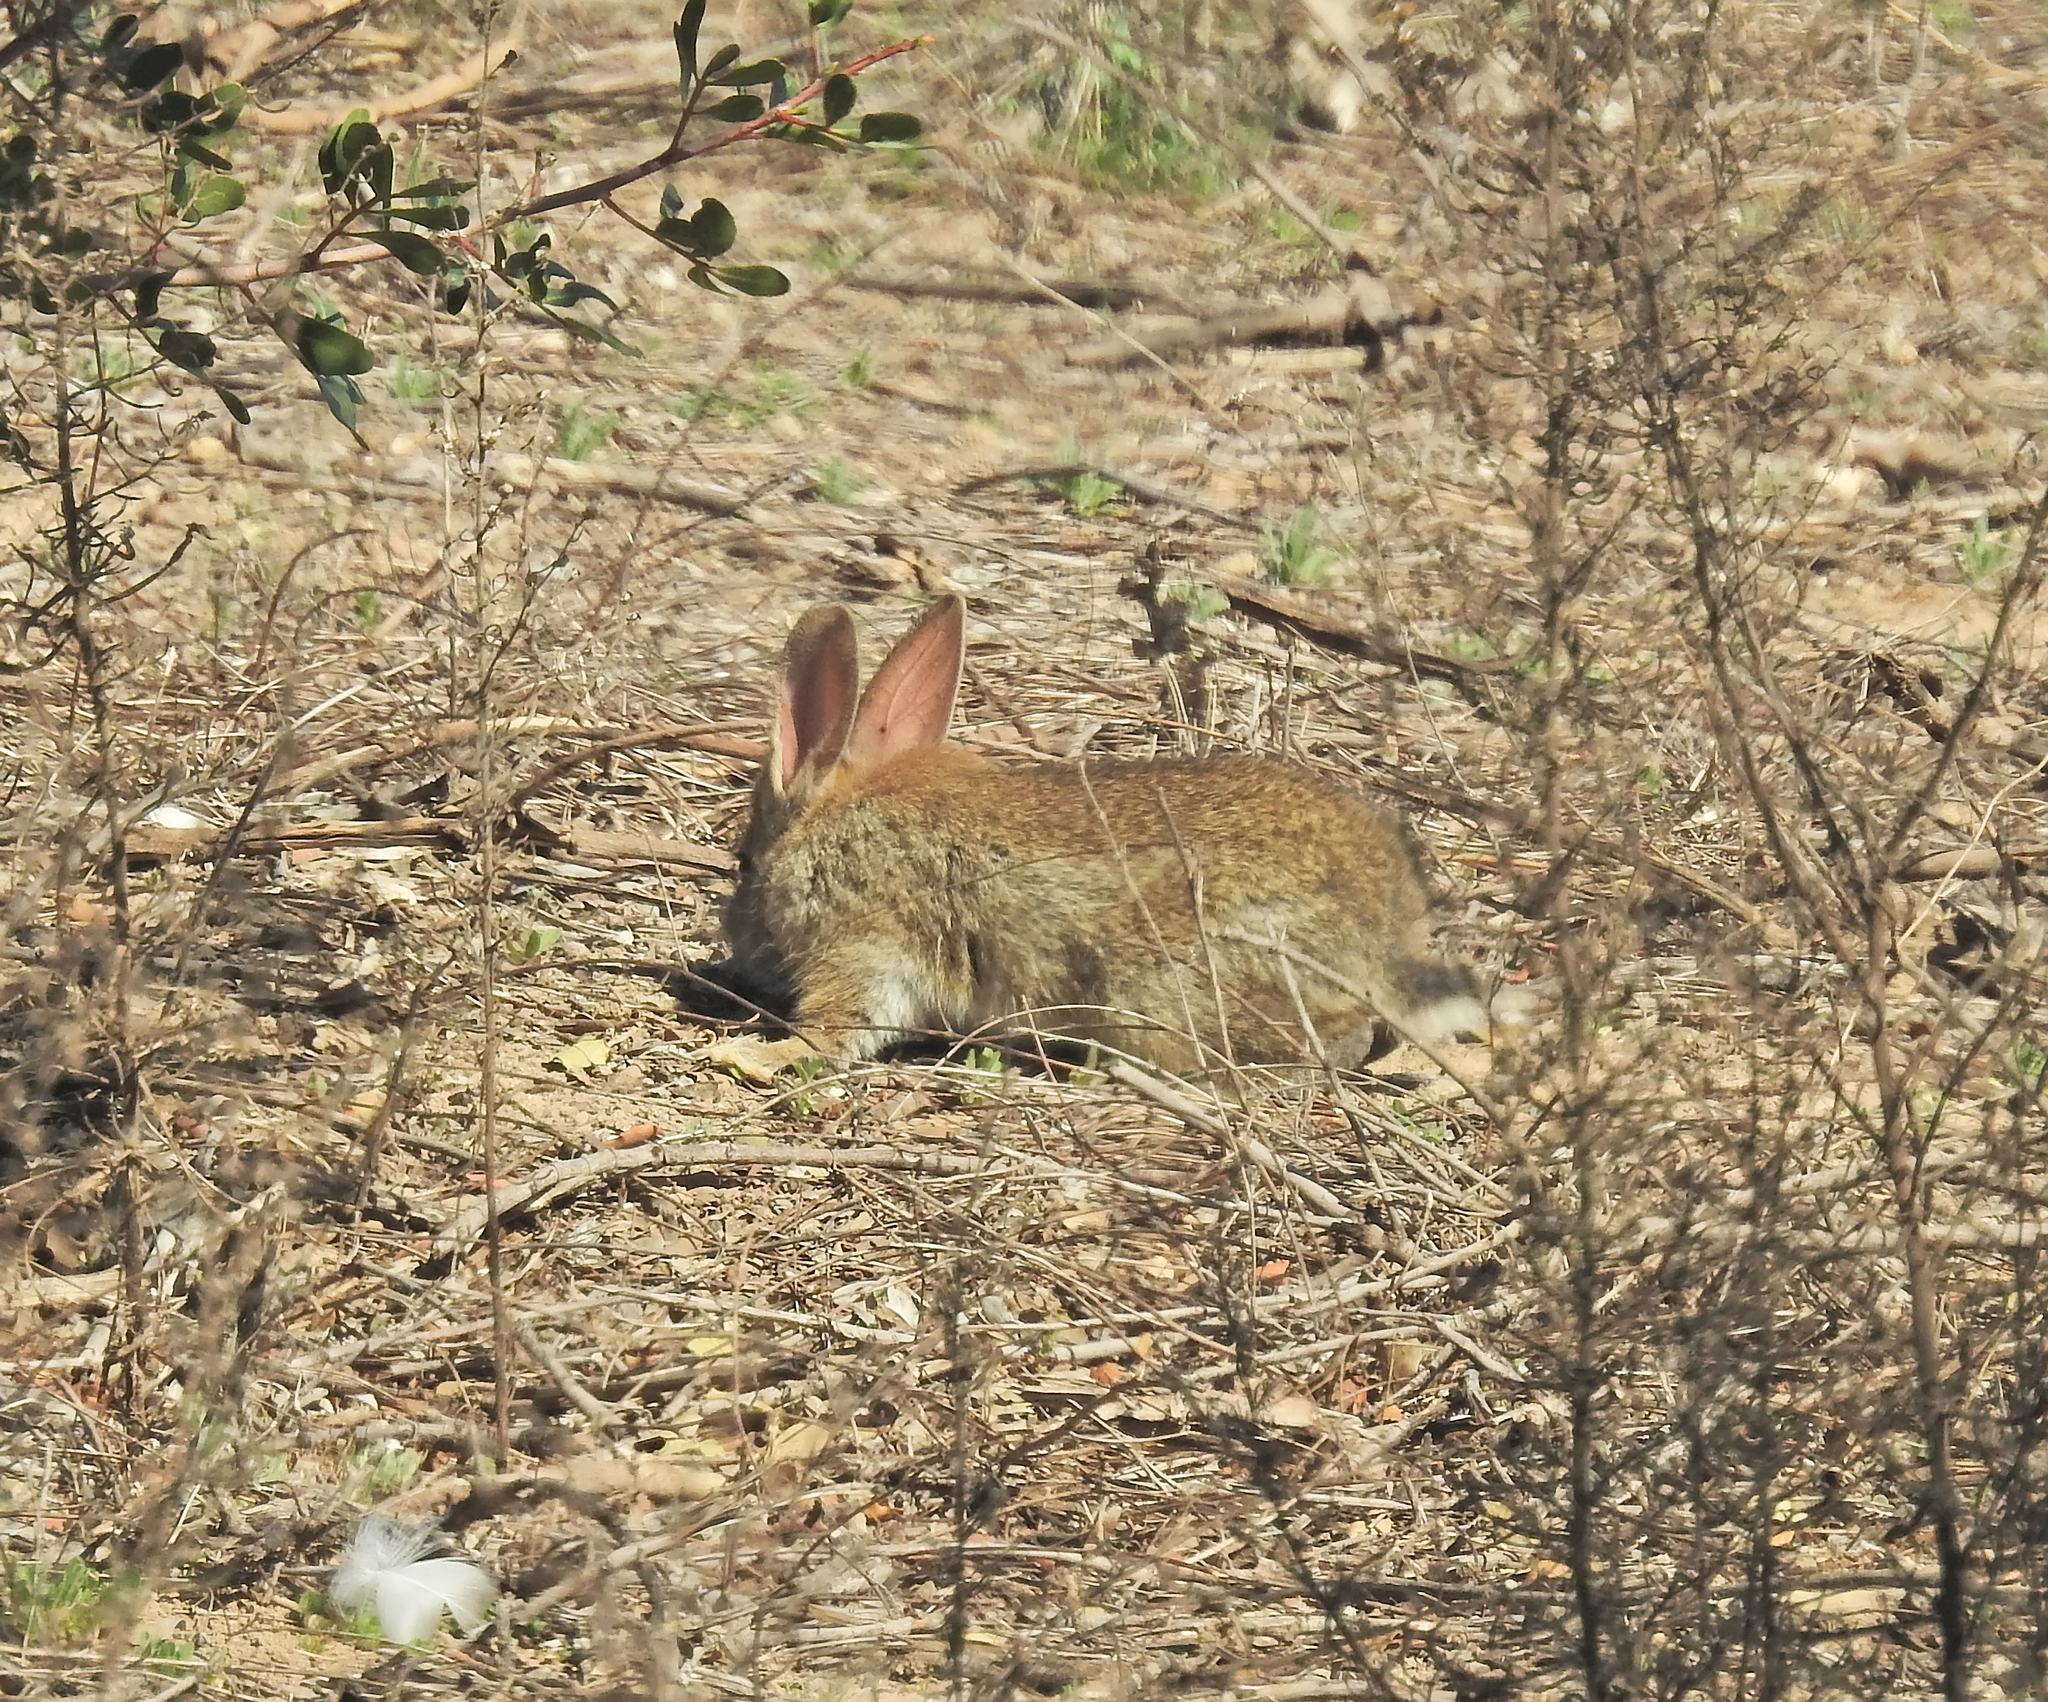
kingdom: Animalia
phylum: Chordata
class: Mammalia
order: Lagomorpha
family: Leporidae
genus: Oryctolagus
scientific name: Oryctolagus cuniculus
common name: European rabbit
